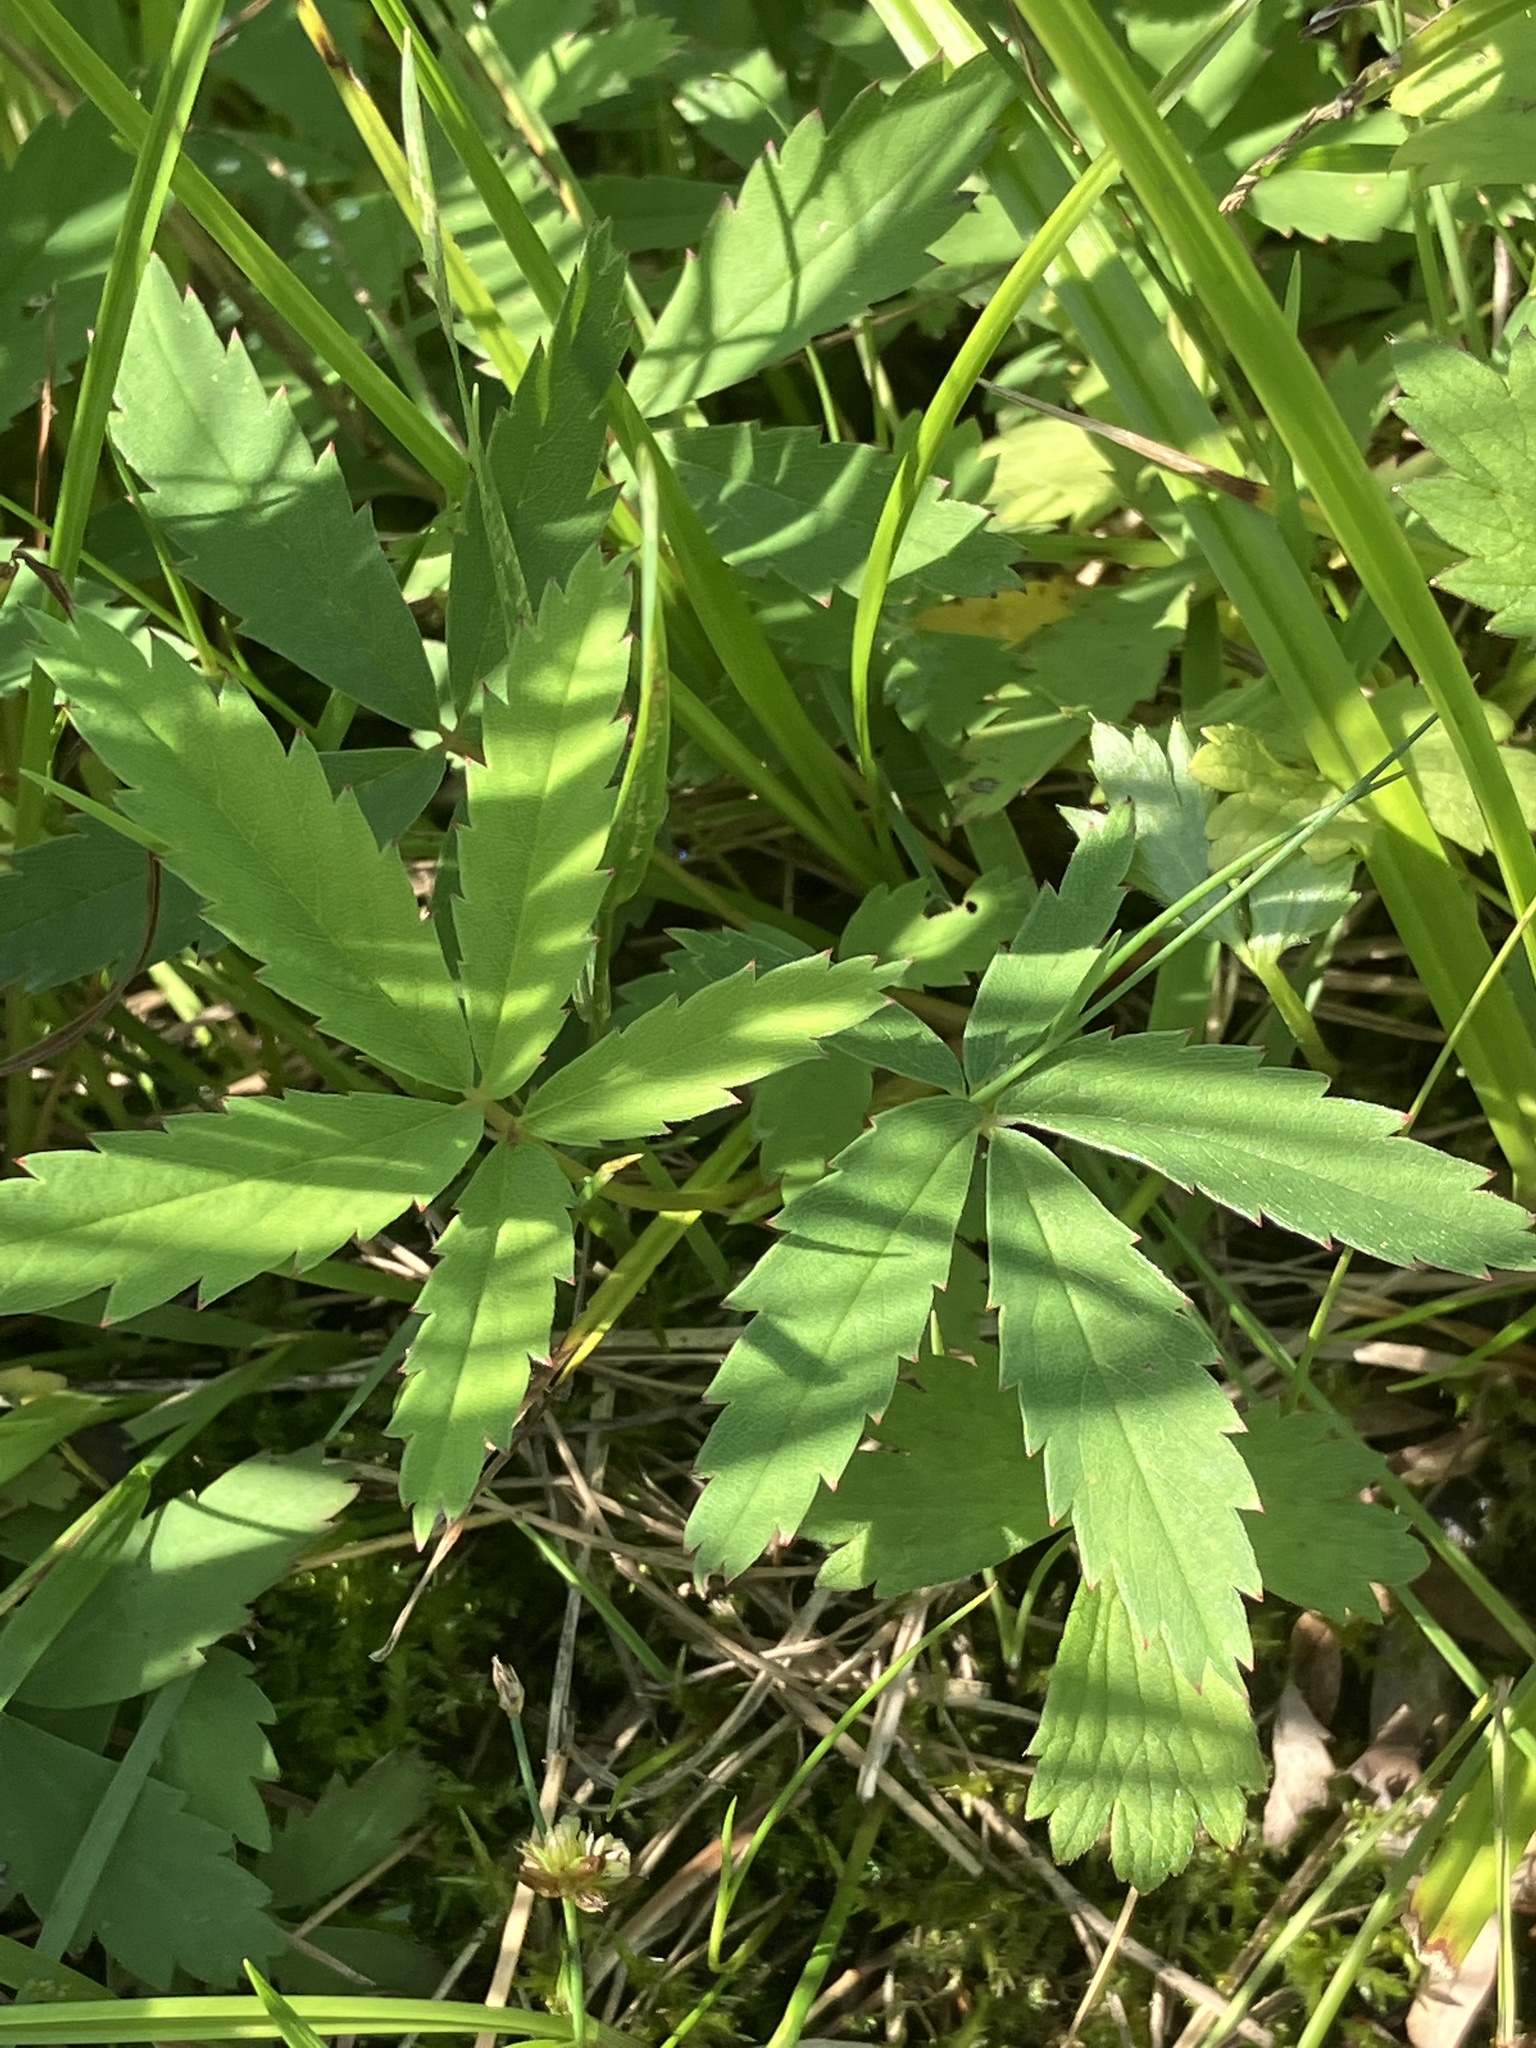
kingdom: Plantae
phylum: Tracheophyta
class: Magnoliopsida
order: Rosales
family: Rosaceae
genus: Comarum
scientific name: Comarum palustre
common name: Marsh cinquefoil
